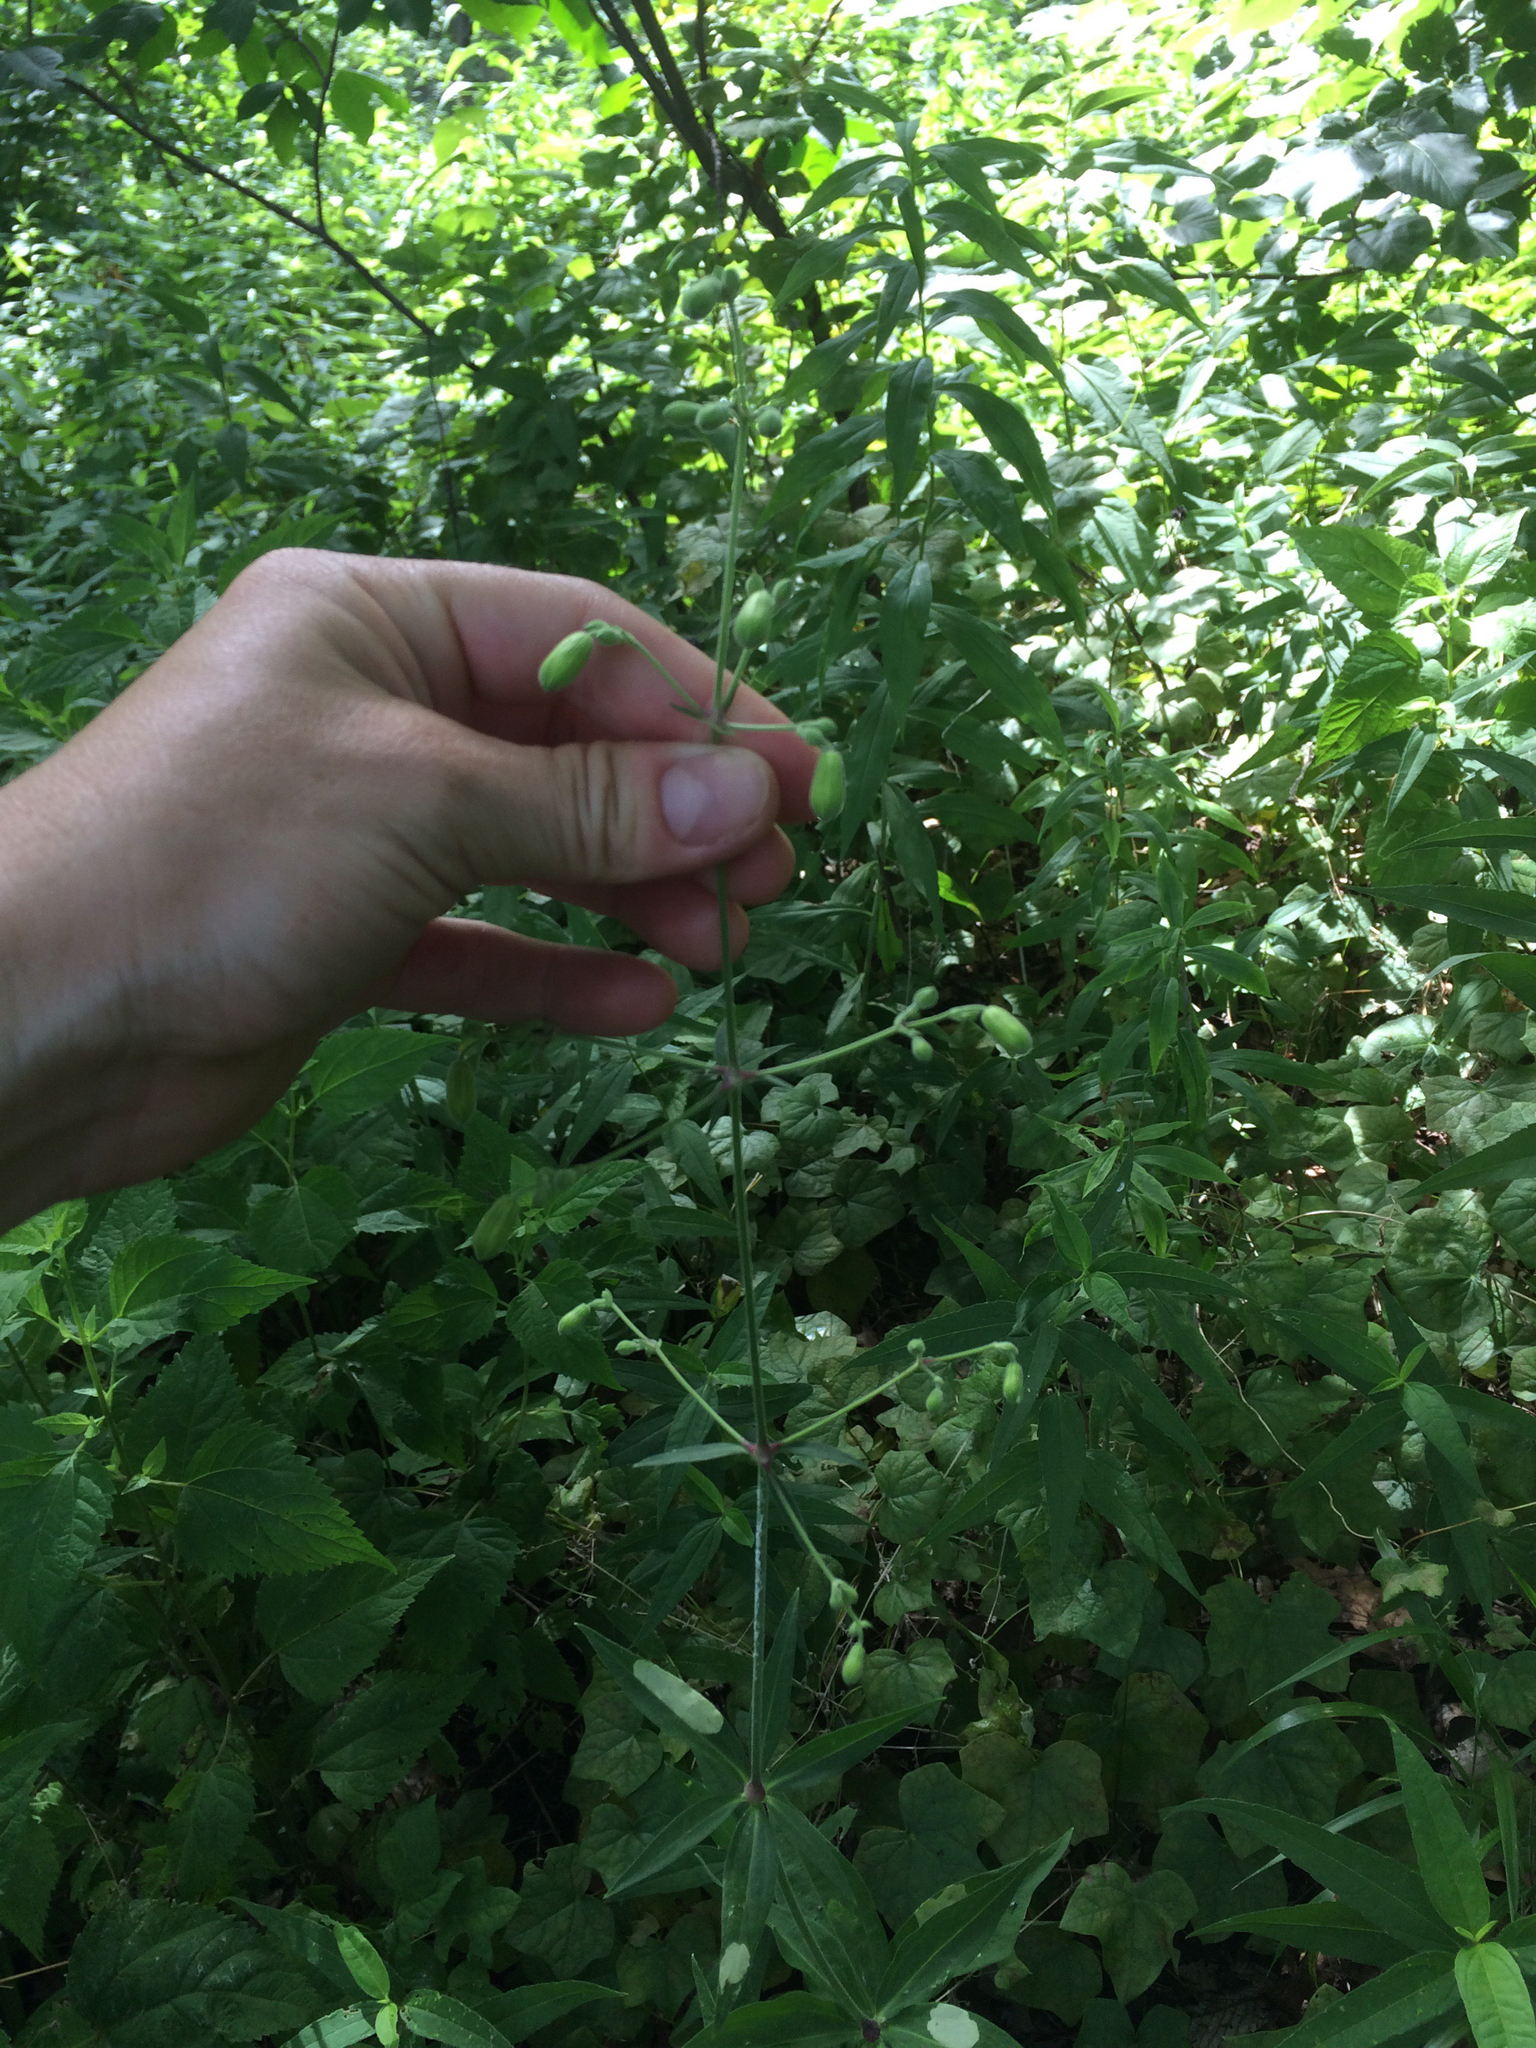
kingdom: Plantae
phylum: Tracheophyta
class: Magnoliopsida
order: Caryophyllales
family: Caryophyllaceae
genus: Silene
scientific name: Silene stellata
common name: Starry campion
